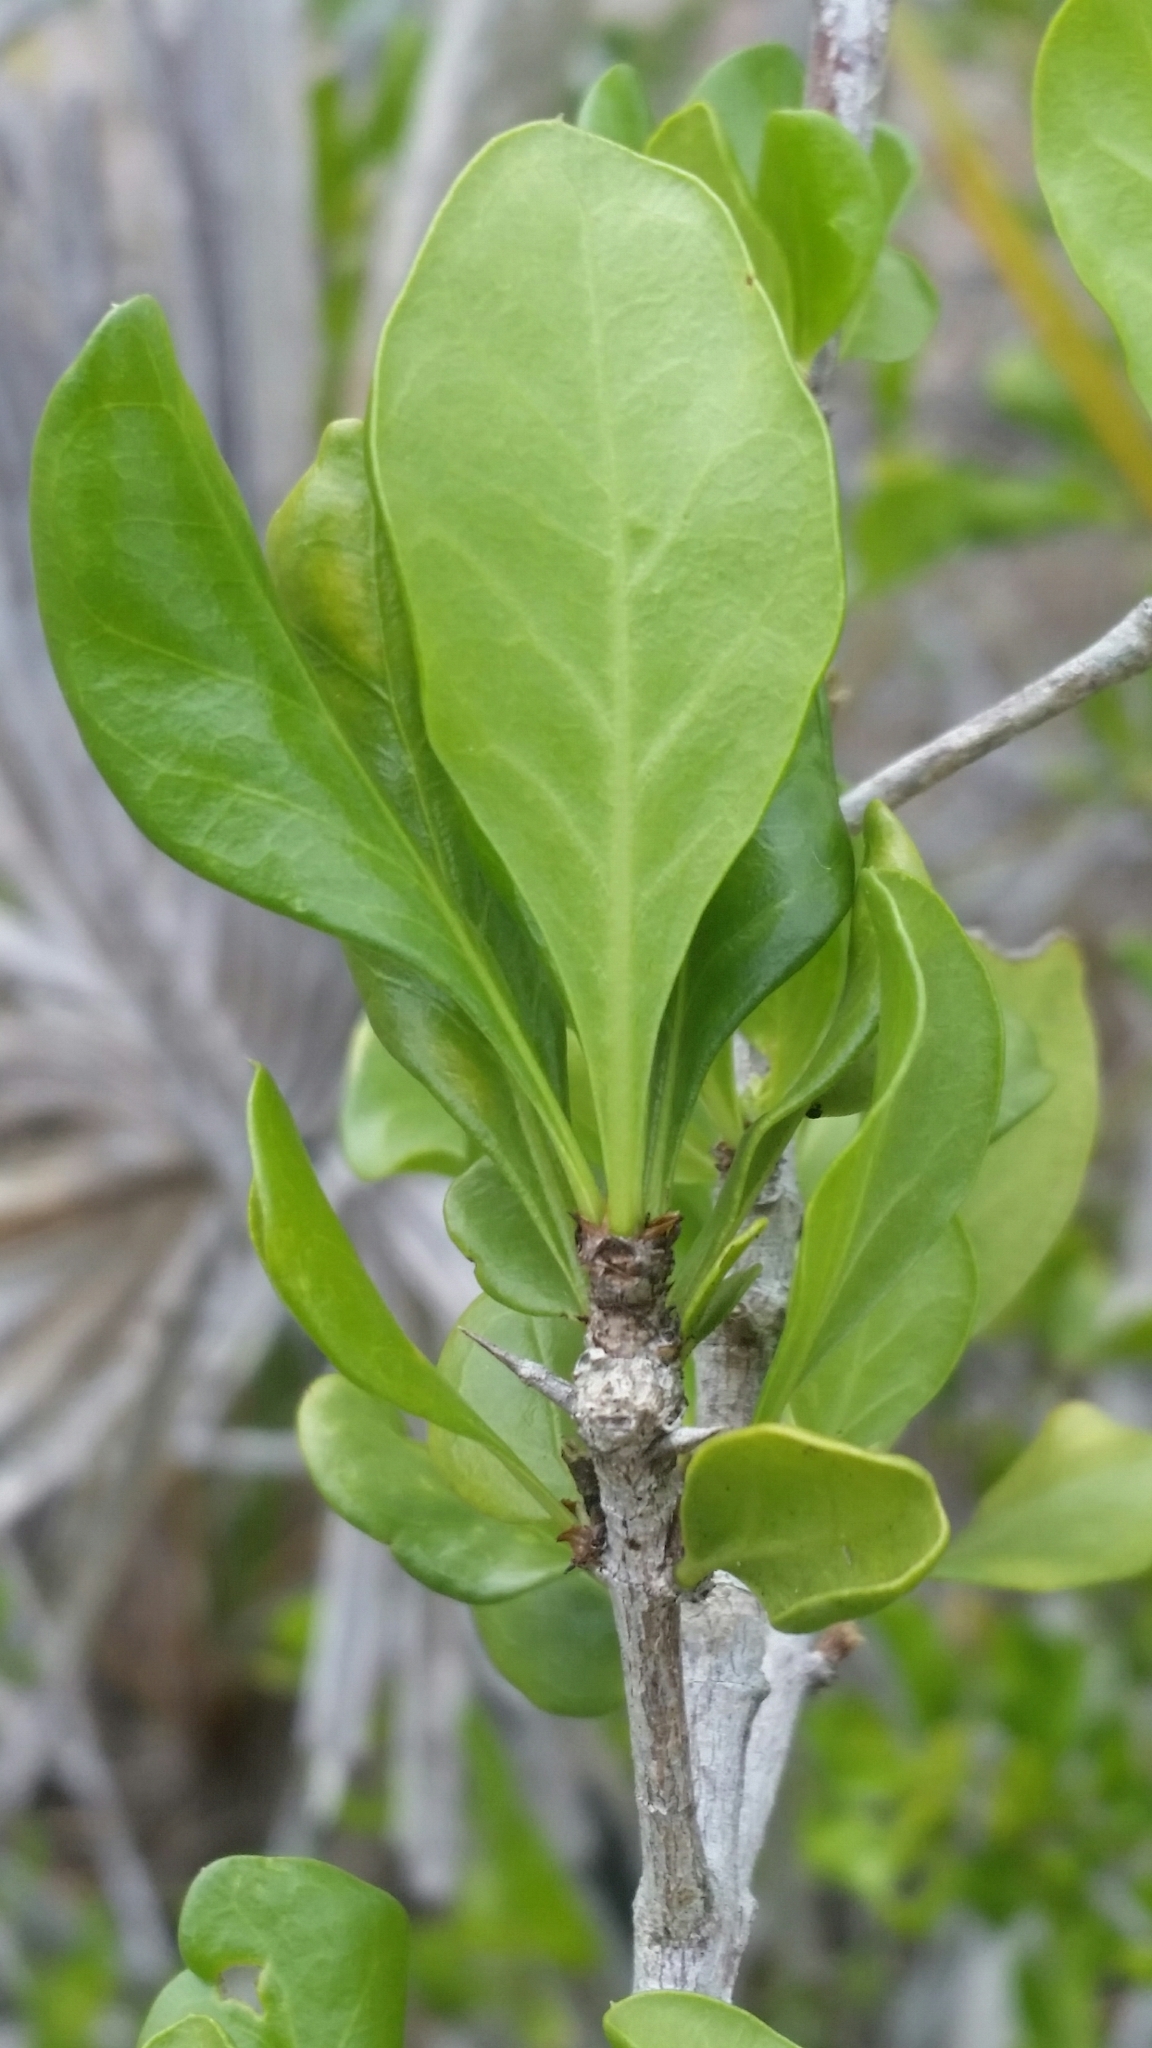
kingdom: Plantae
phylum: Tracheophyta
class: Magnoliopsida
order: Gentianales
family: Rubiaceae
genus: Randia
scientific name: Randia aculeata
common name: Inkberry
